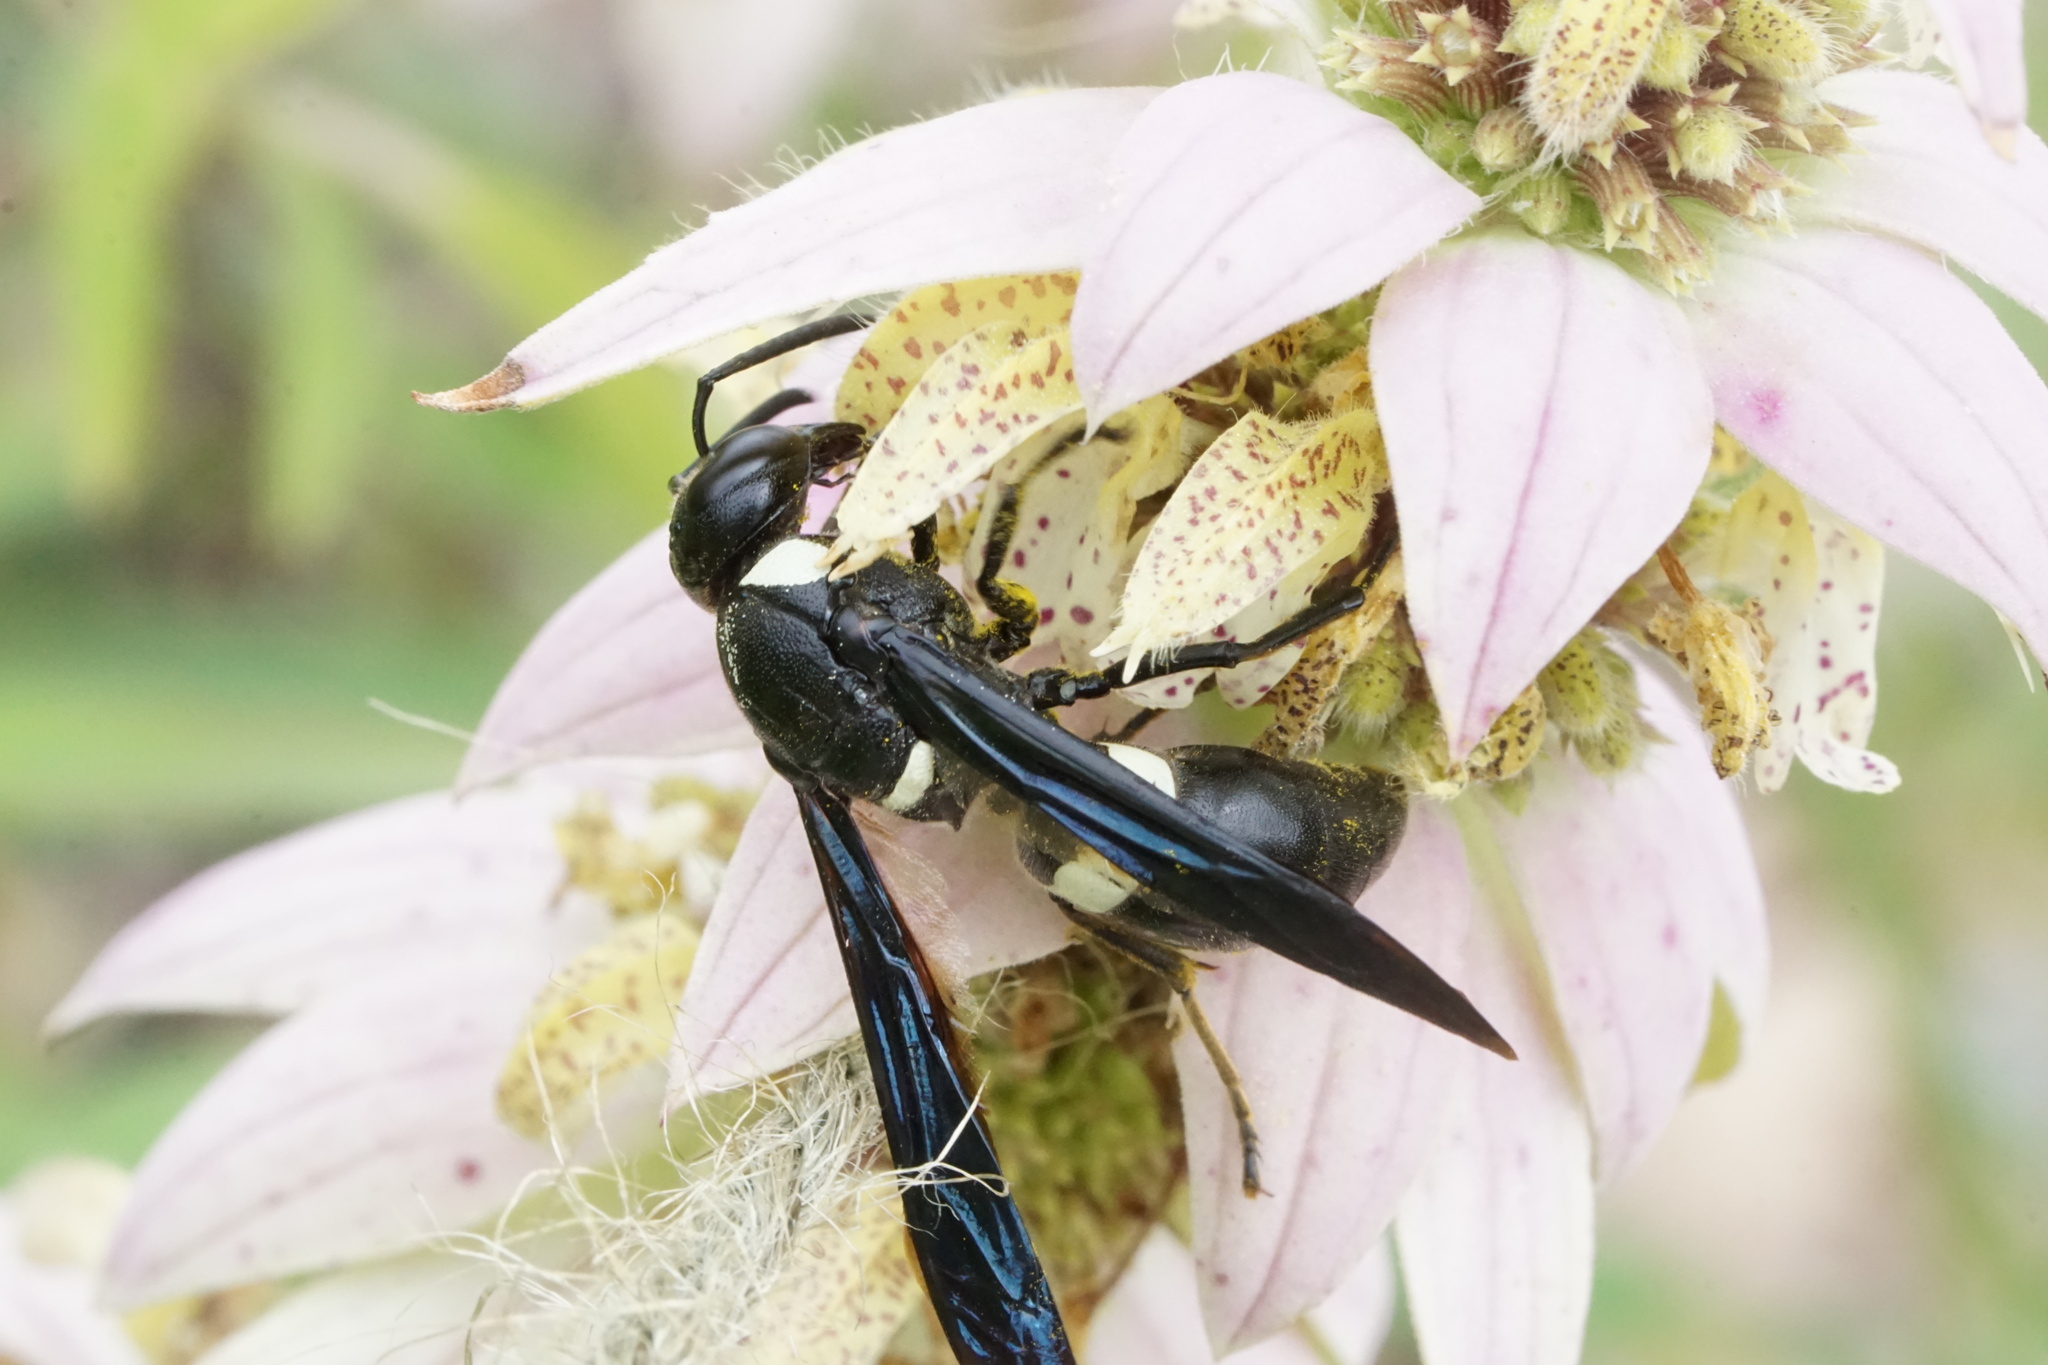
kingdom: Animalia
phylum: Arthropoda
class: Insecta
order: Hymenoptera
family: Eumenidae
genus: Monobia
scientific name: Monobia quadridens
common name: Four-toothed mason wasp
